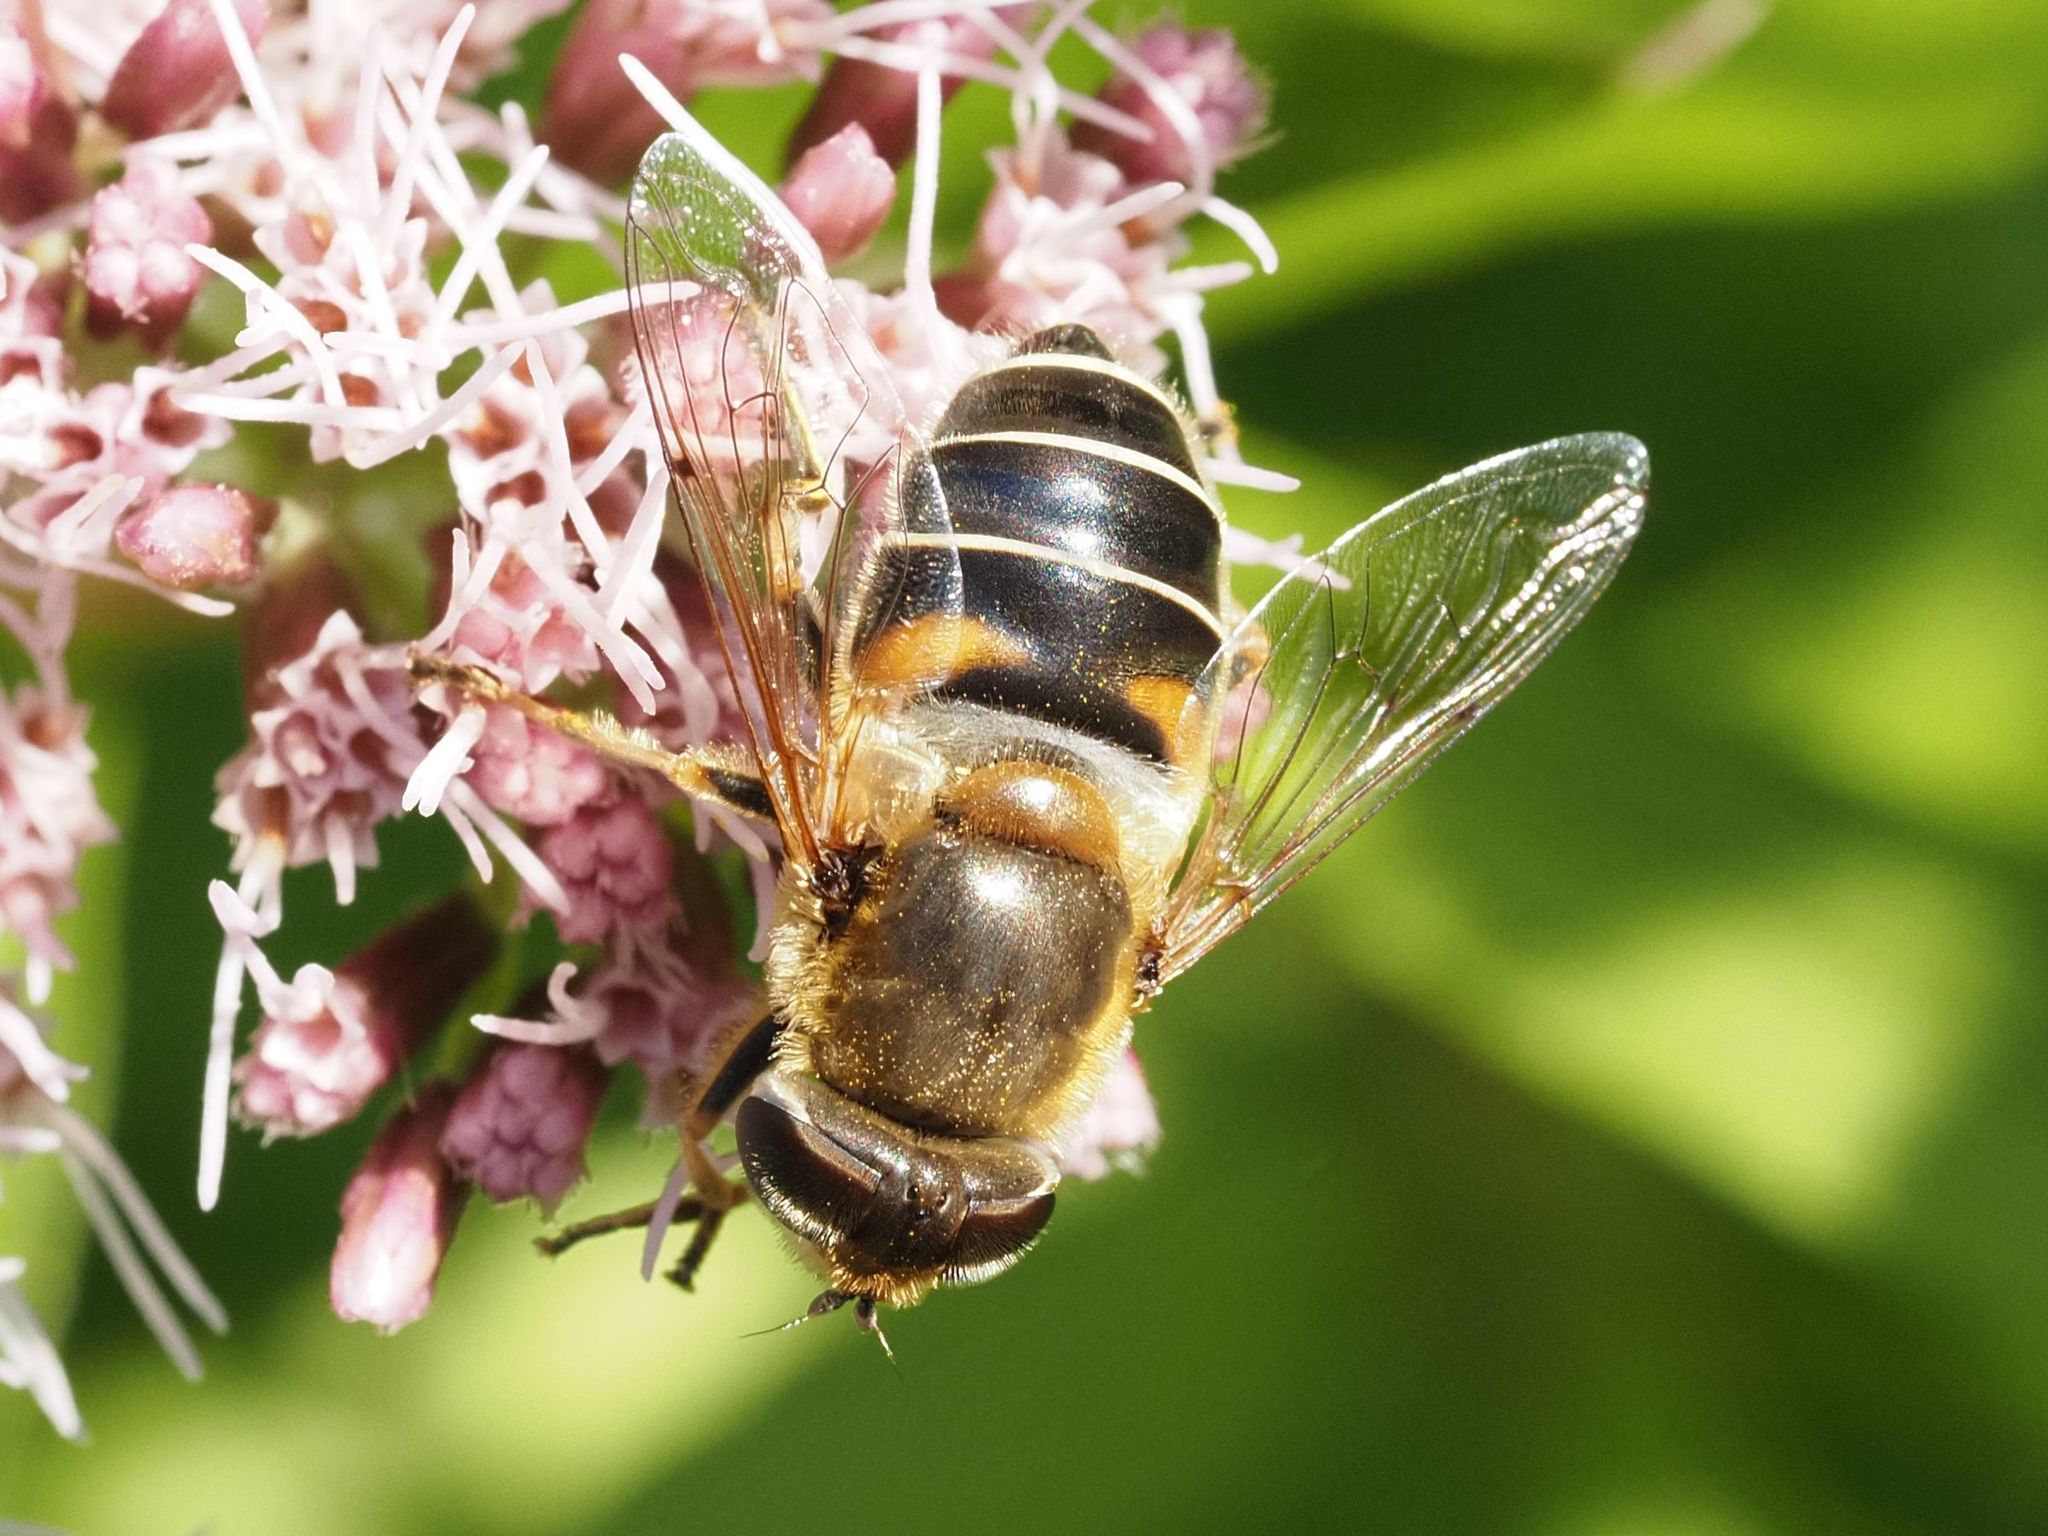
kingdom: Animalia
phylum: Arthropoda
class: Insecta
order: Diptera
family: Syrphidae
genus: Eristalis
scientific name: Eristalis nemorum
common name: Orange-spined drone fly
